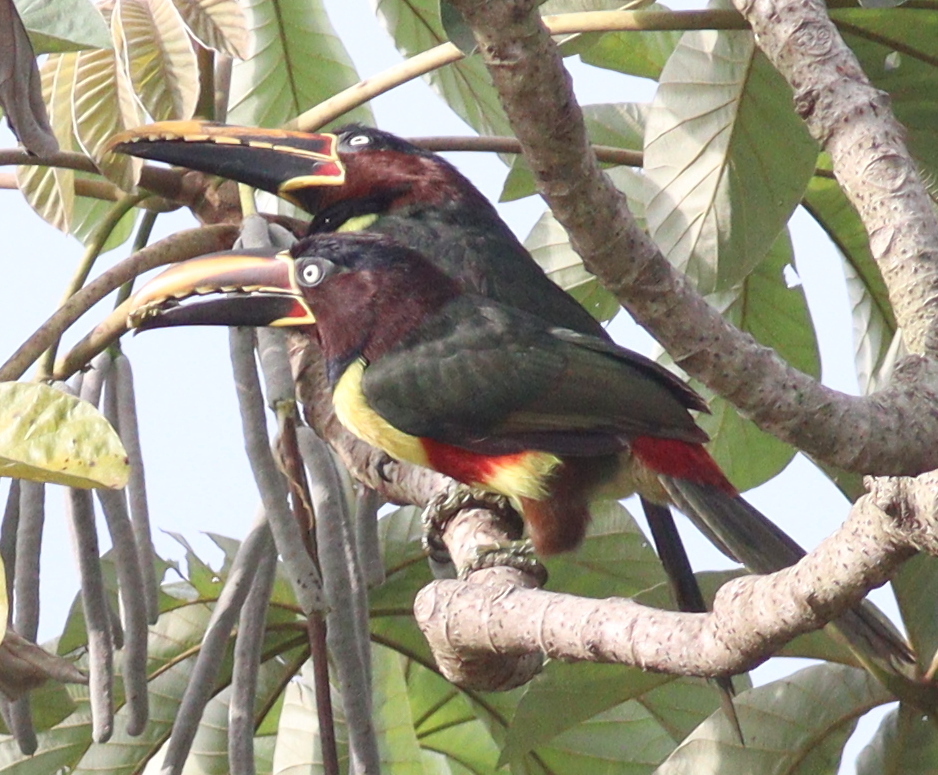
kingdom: Animalia
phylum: Chordata
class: Aves
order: Piciformes
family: Ramphastidae
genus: Pteroglossus
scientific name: Pteroglossus castanotis
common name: Chestnut-eared aracari
